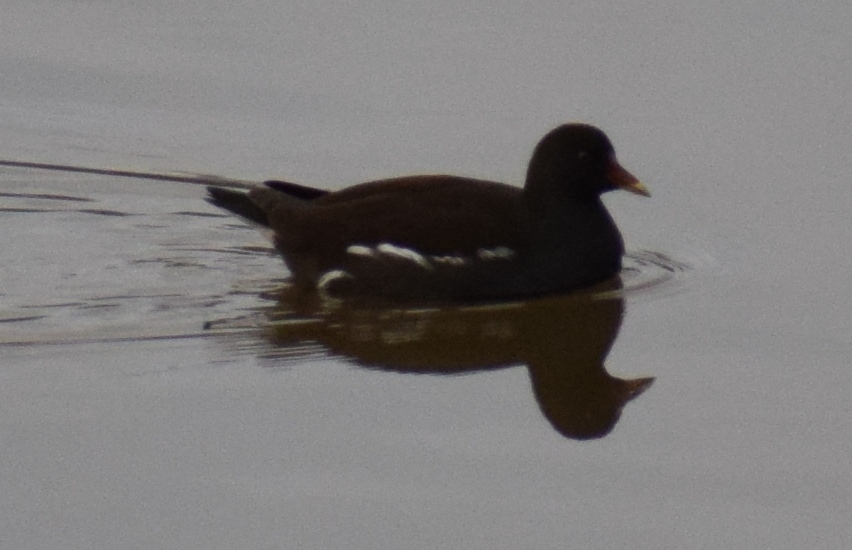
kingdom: Animalia
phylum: Chordata
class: Aves
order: Gruiformes
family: Rallidae
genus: Gallinula
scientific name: Gallinula chloropus
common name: Common moorhen
